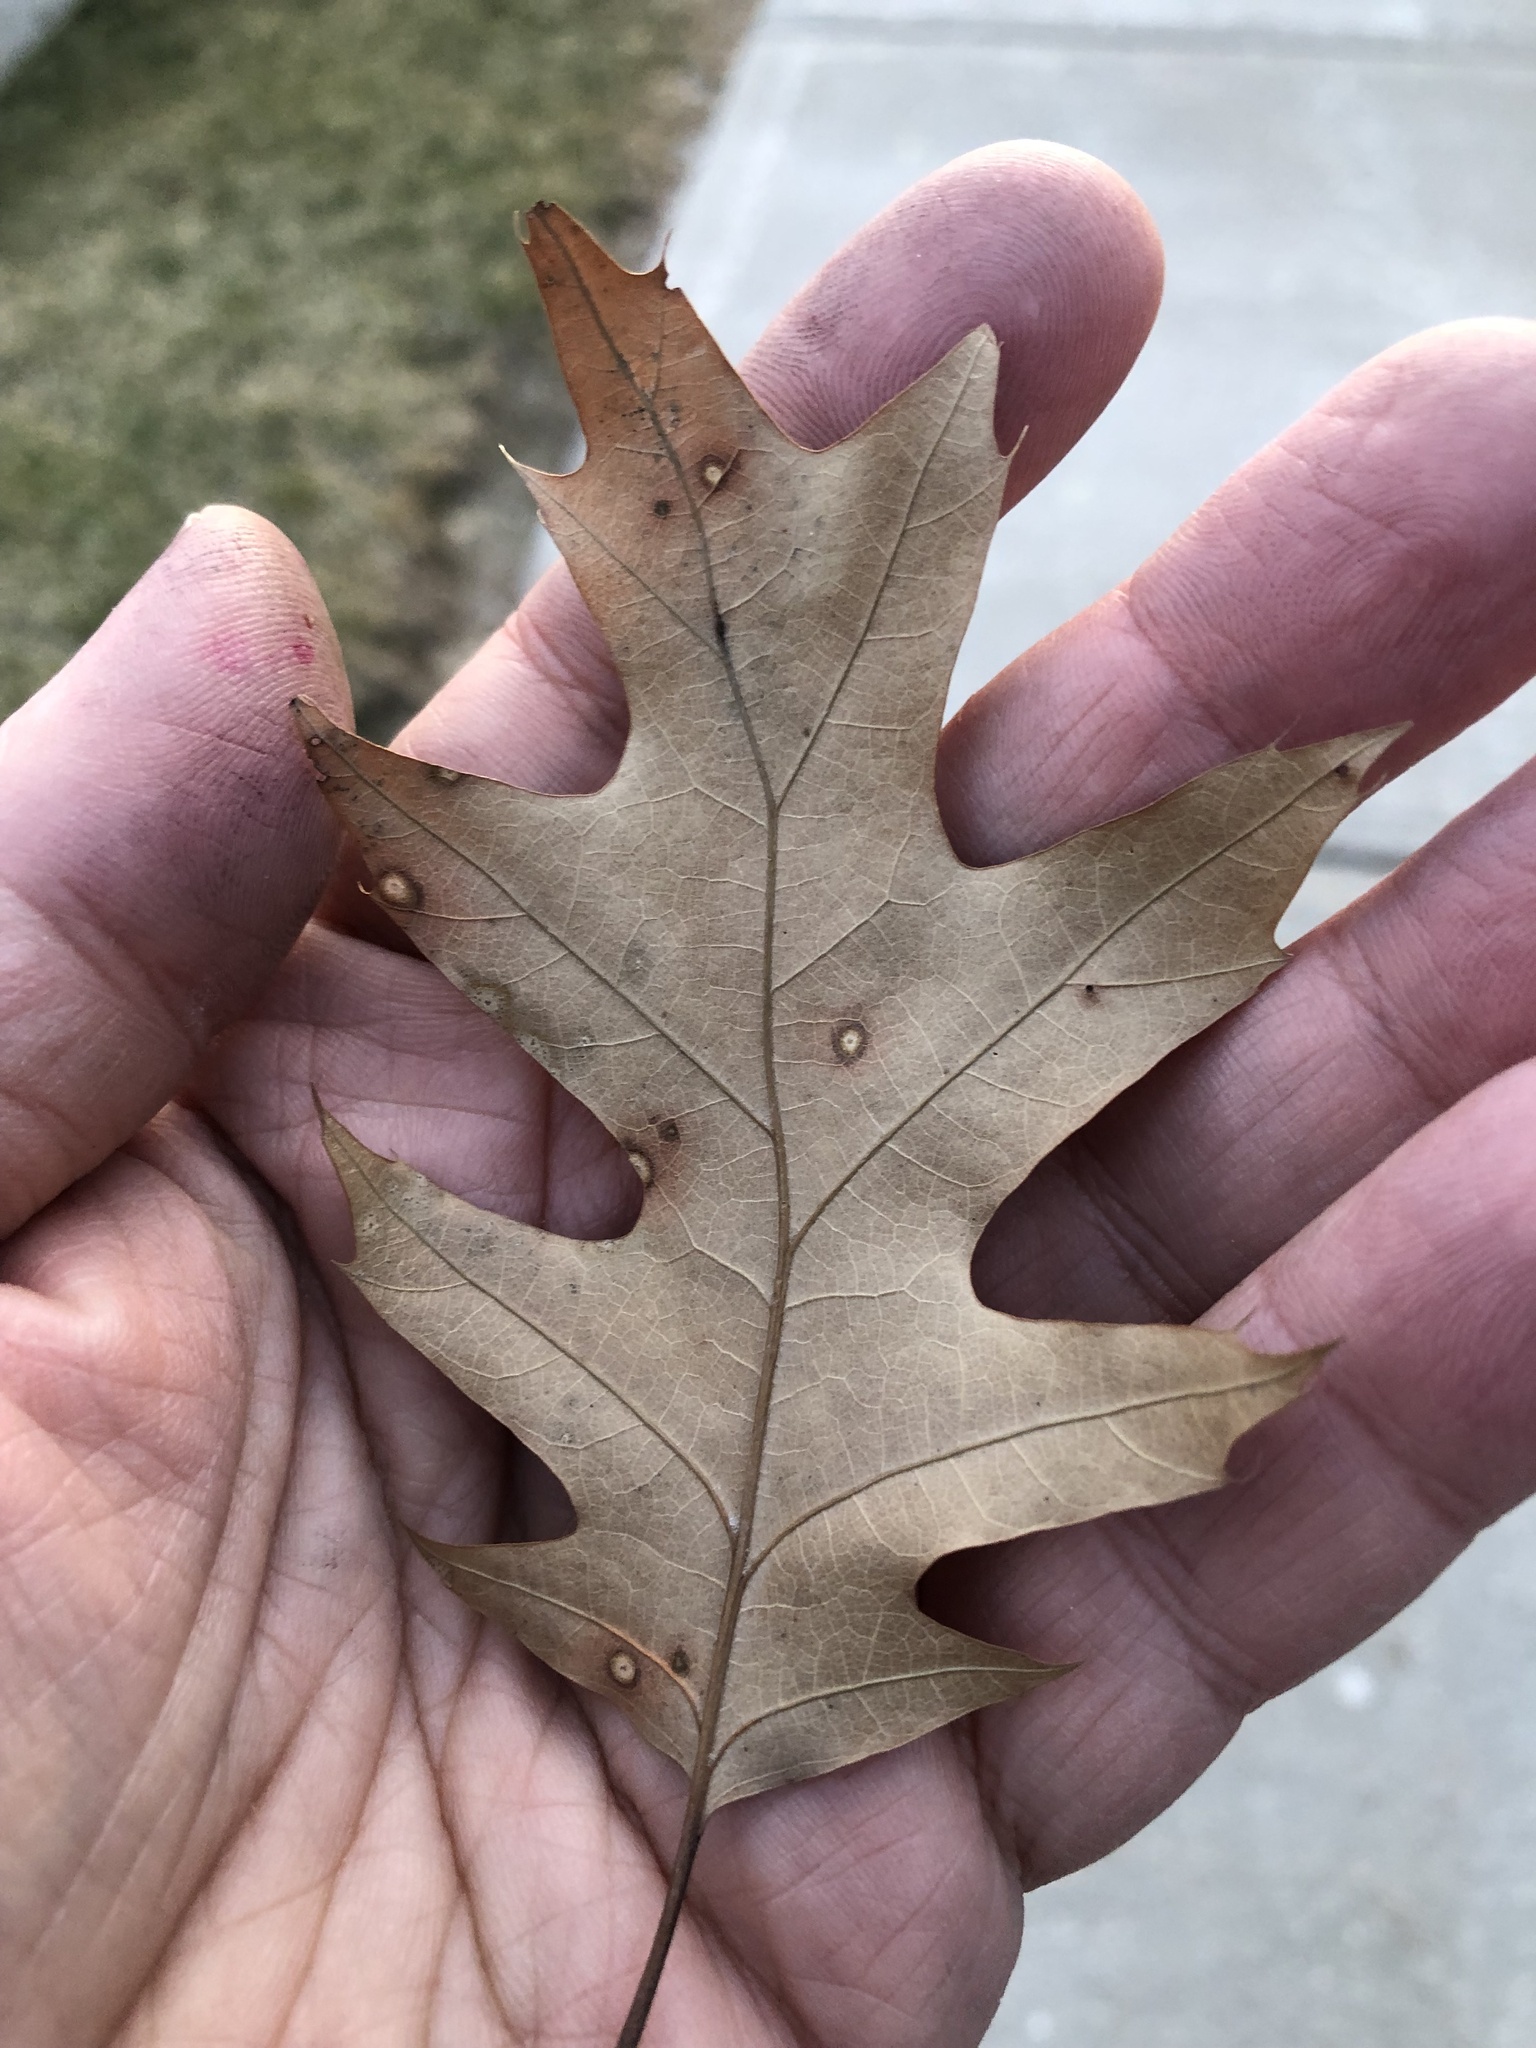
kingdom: Plantae
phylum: Tracheophyta
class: Magnoliopsida
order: Fagales
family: Fagaceae
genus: Quercus
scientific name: Quercus rubra
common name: Red oak
